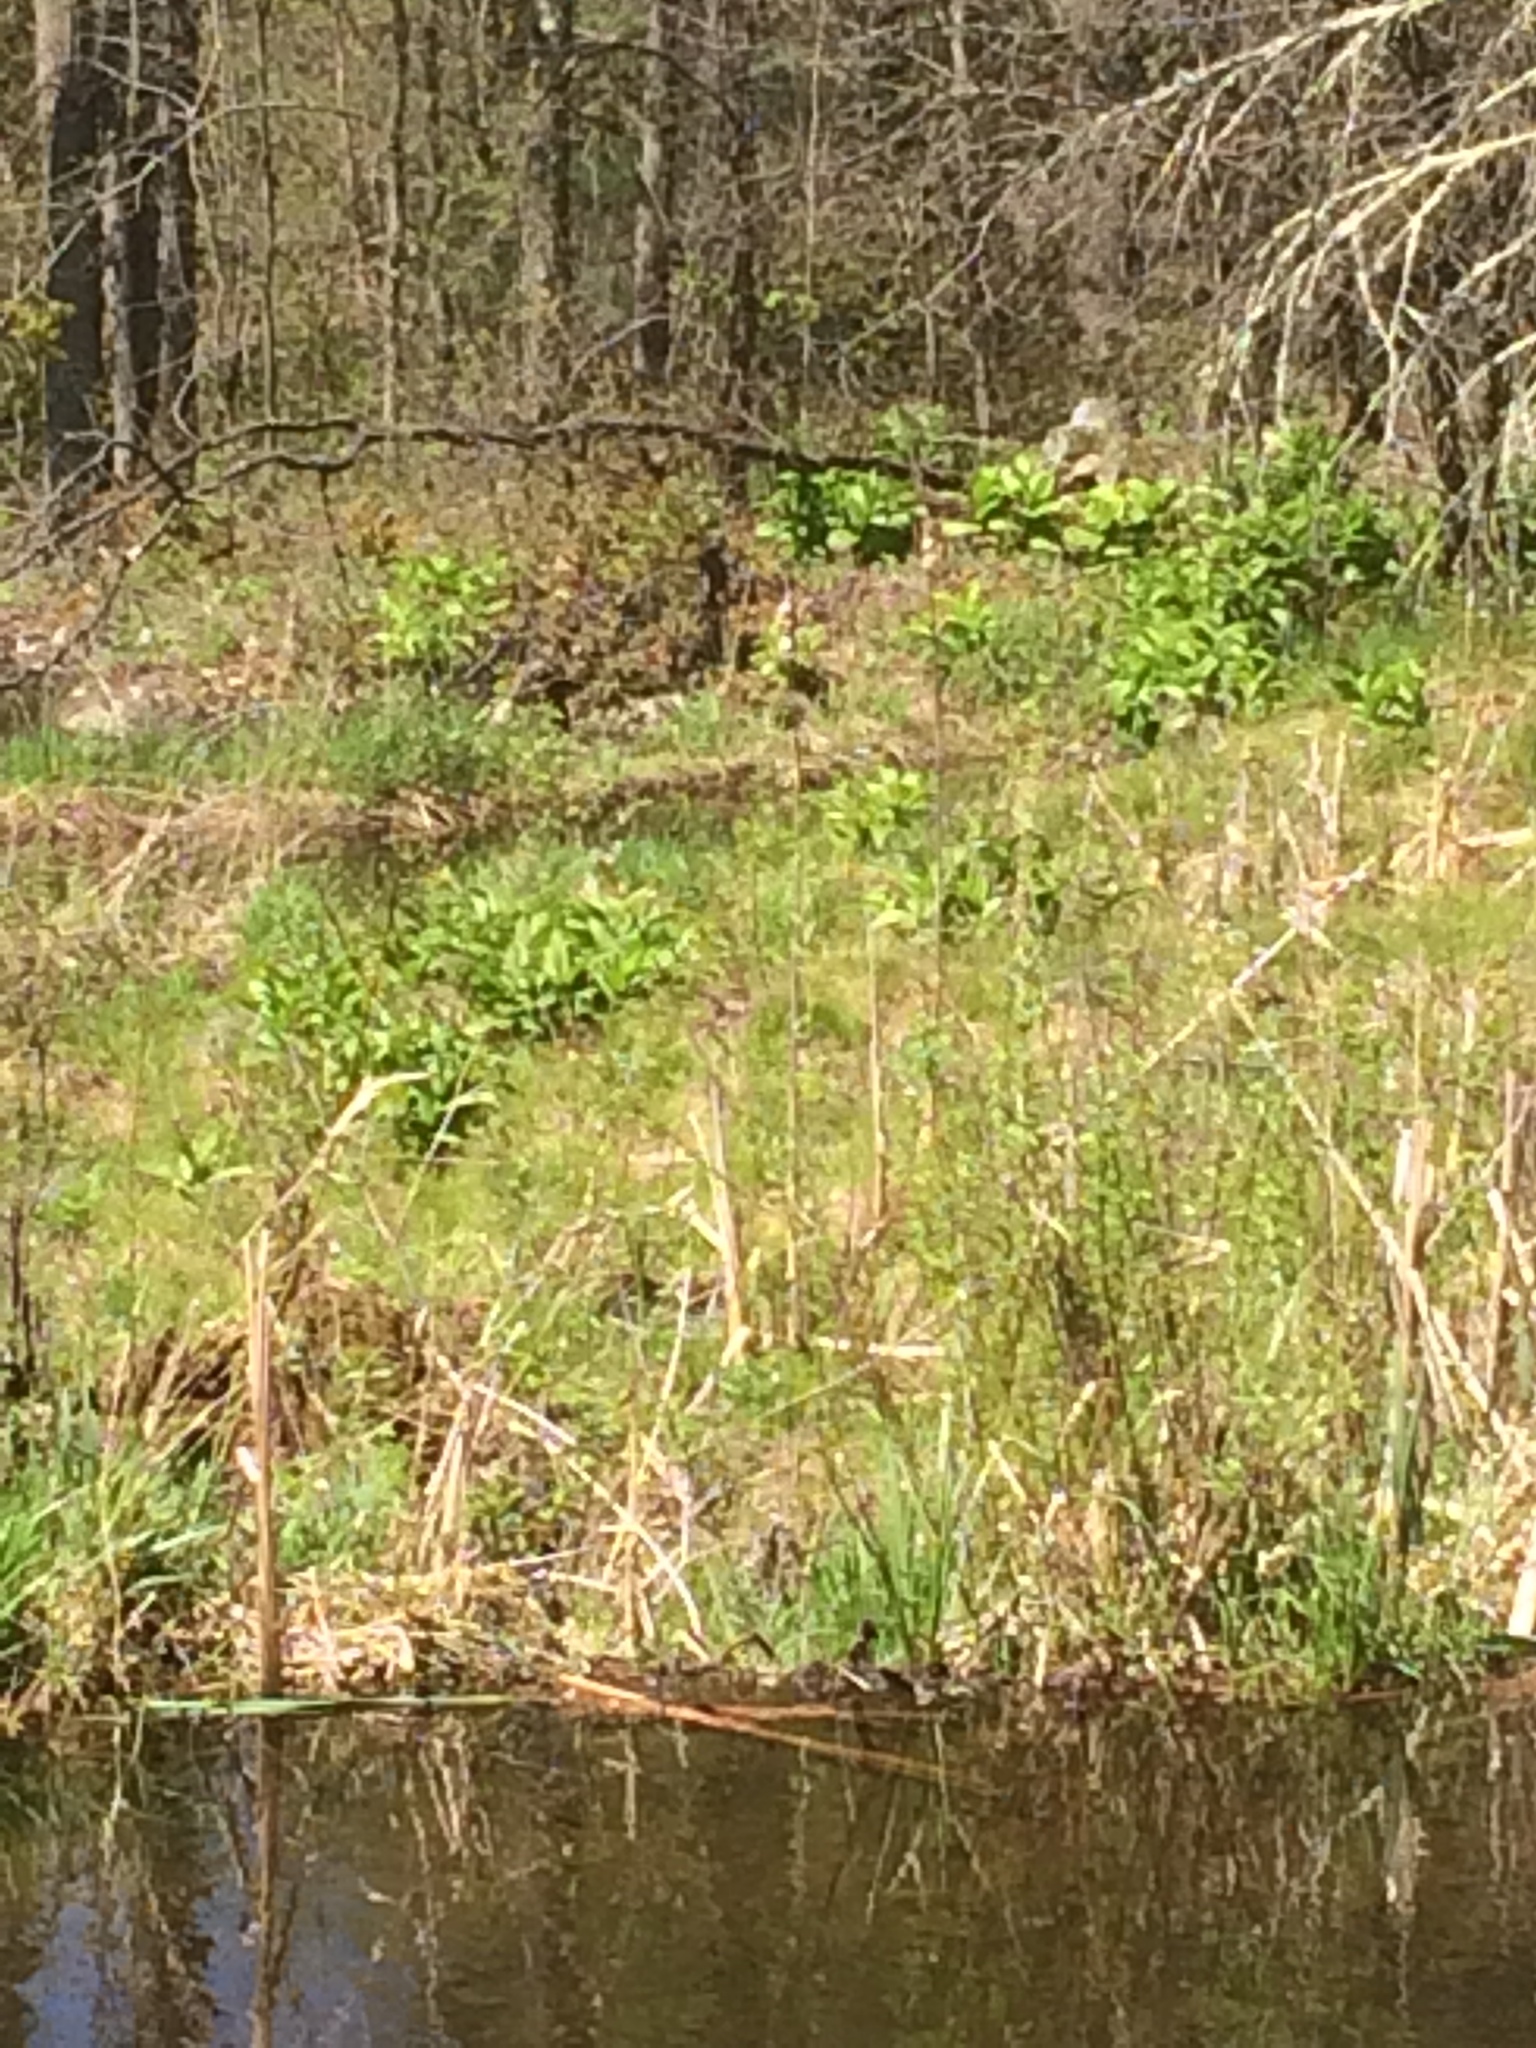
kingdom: Plantae
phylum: Tracheophyta
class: Liliopsida
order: Liliales
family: Melanthiaceae
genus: Veratrum
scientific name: Veratrum viride
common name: American false hellebore
